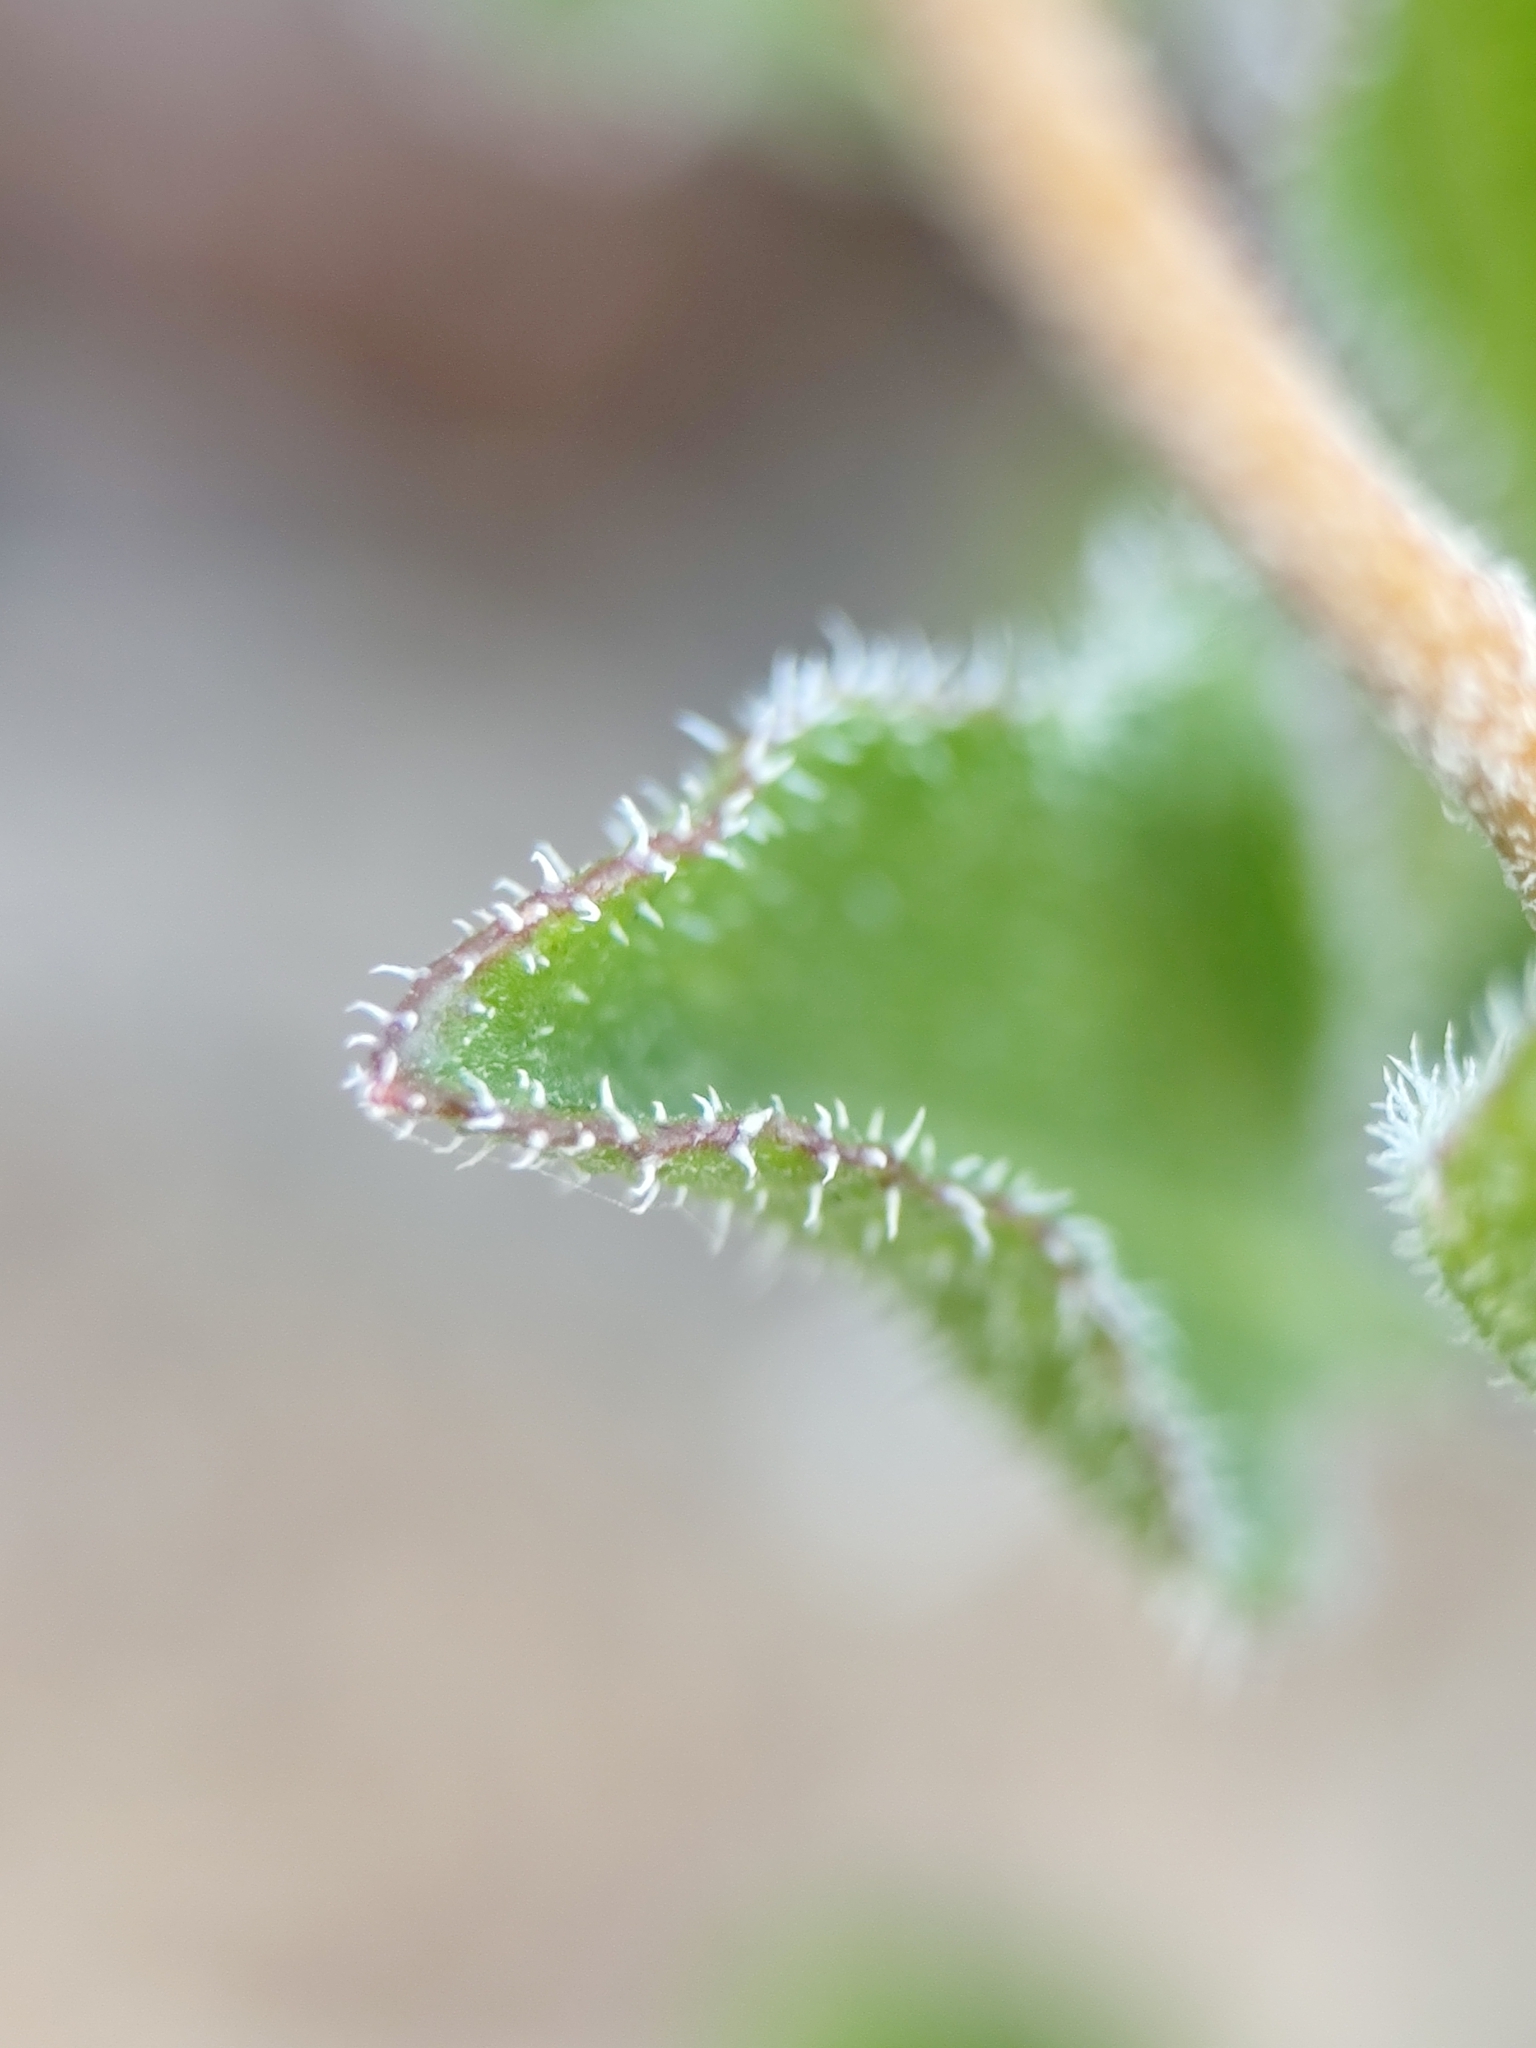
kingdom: Plantae
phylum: Tracheophyta
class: Magnoliopsida
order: Asterales
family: Asteraceae
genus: Encelia
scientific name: Encelia balandra
